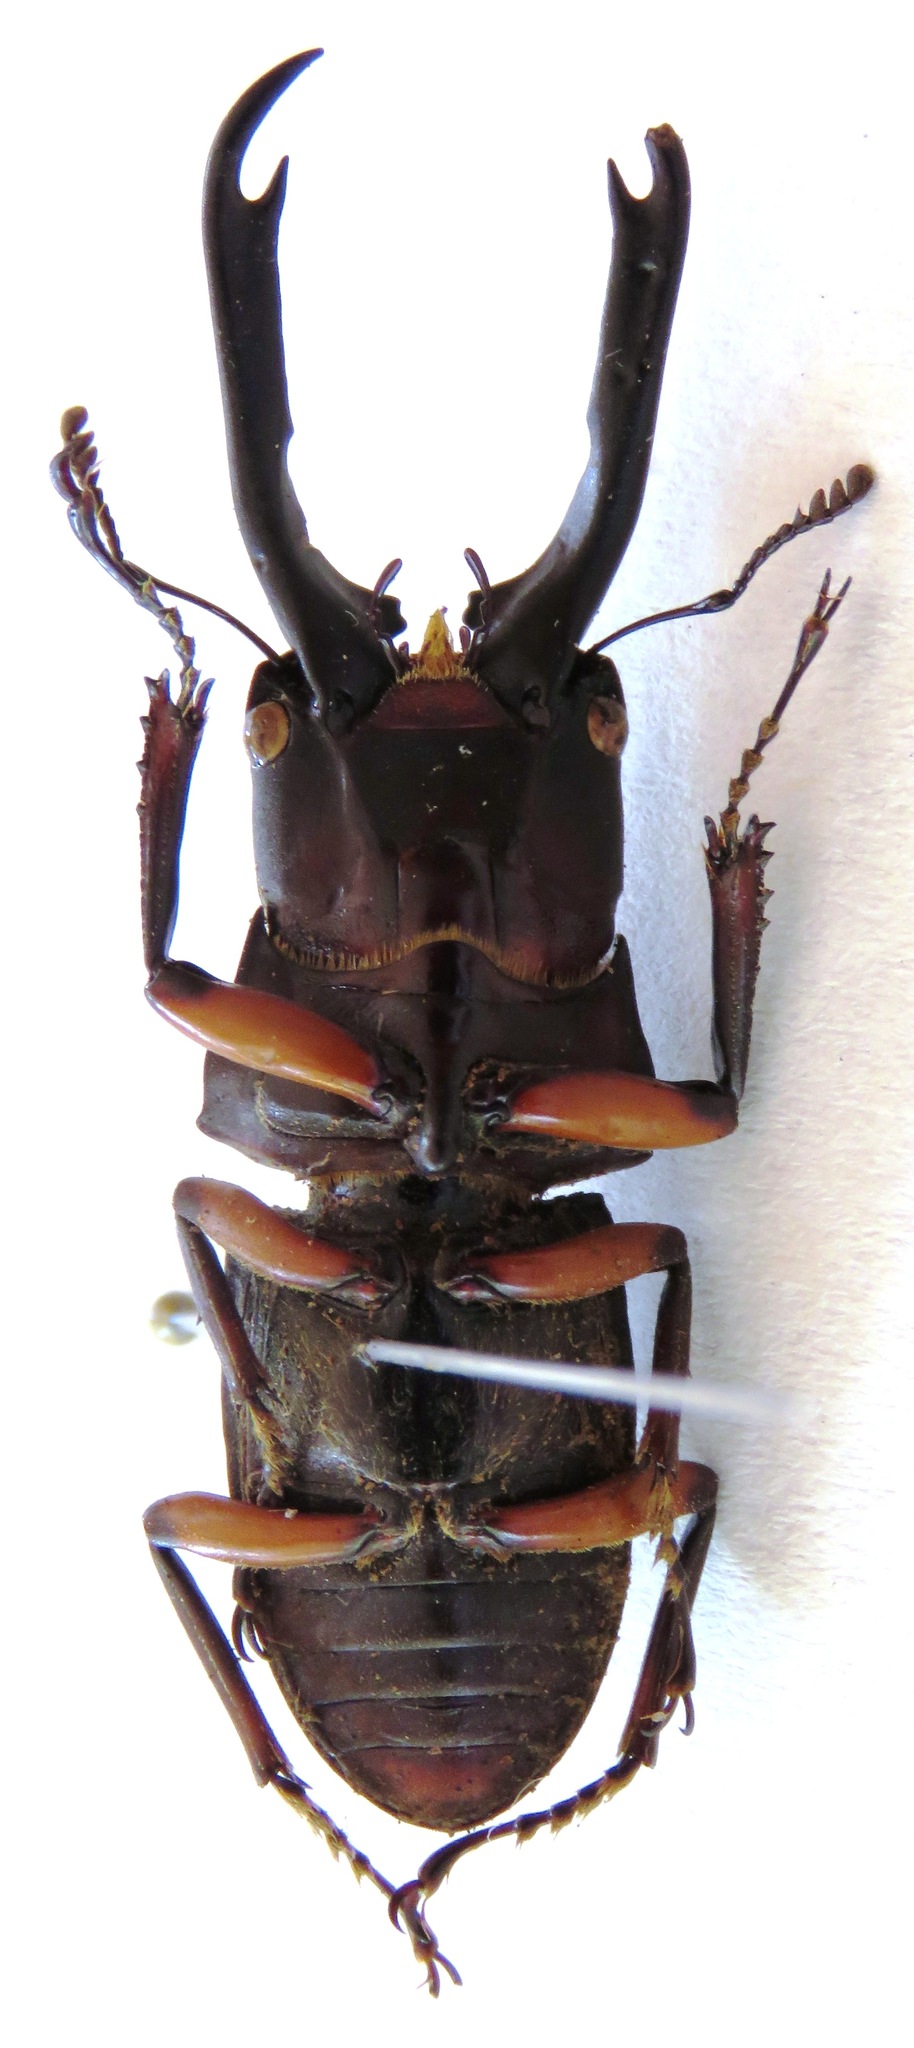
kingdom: Animalia
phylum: Arthropoda
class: Insecta
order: Coleoptera
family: Lucanidae
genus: Miwanus
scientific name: Miwanus formosanus
